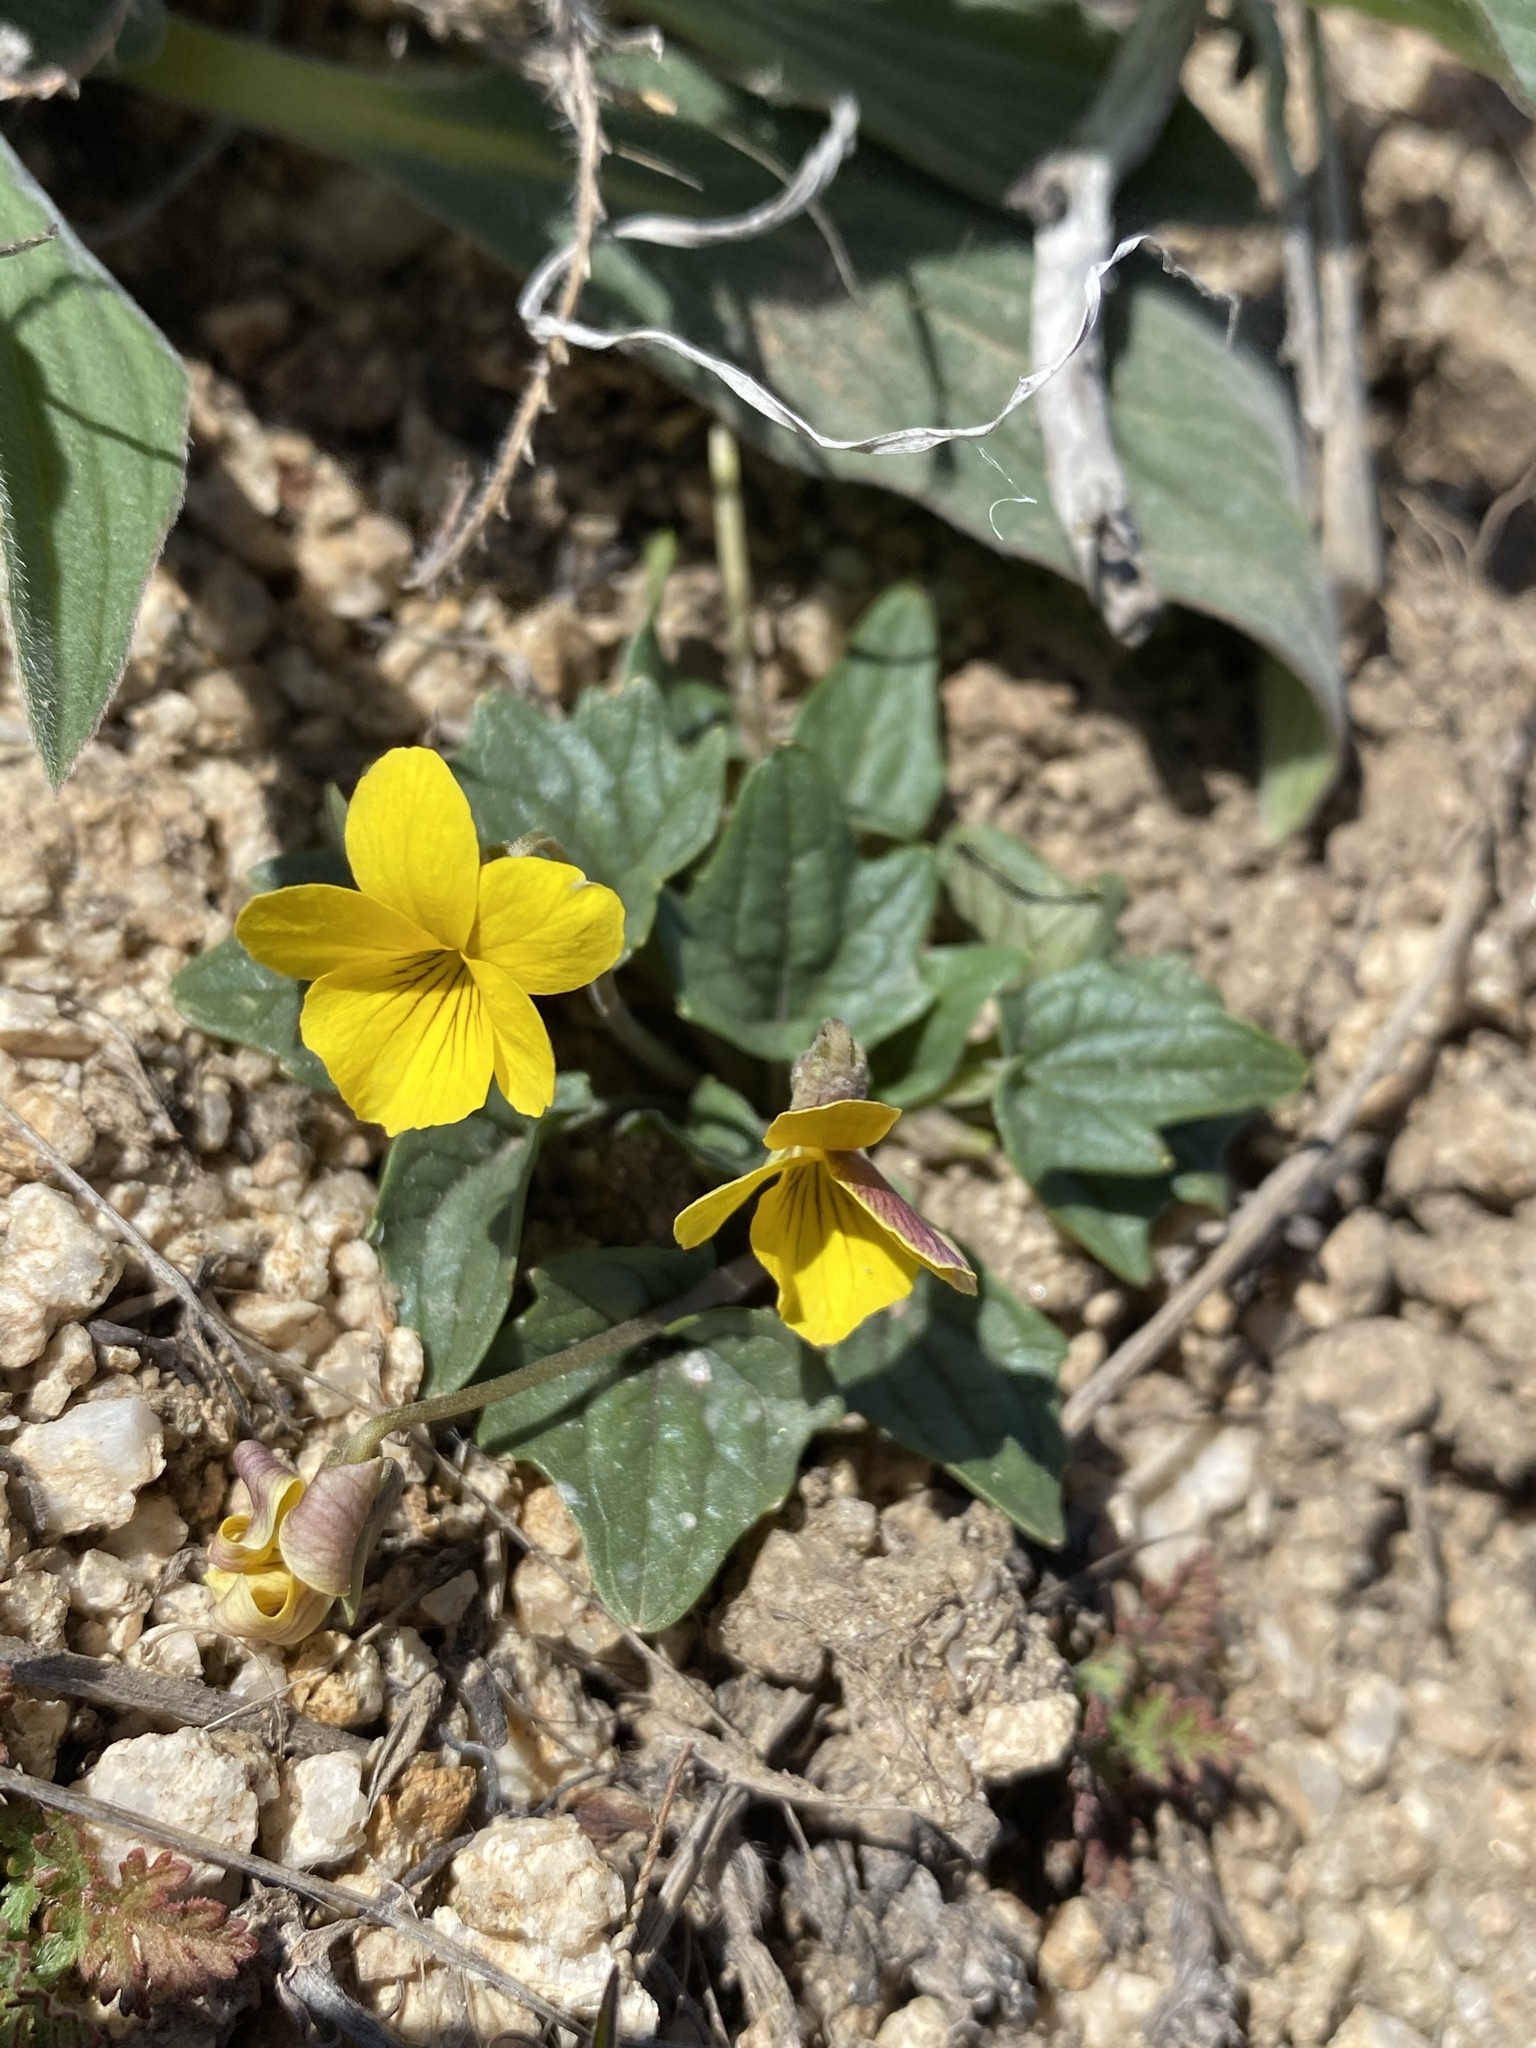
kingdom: Plantae
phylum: Tracheophyta
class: Magnoliopsida
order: Malpighiales
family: Violaceae
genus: Viola
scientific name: Viola purpurea
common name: Pine violet
